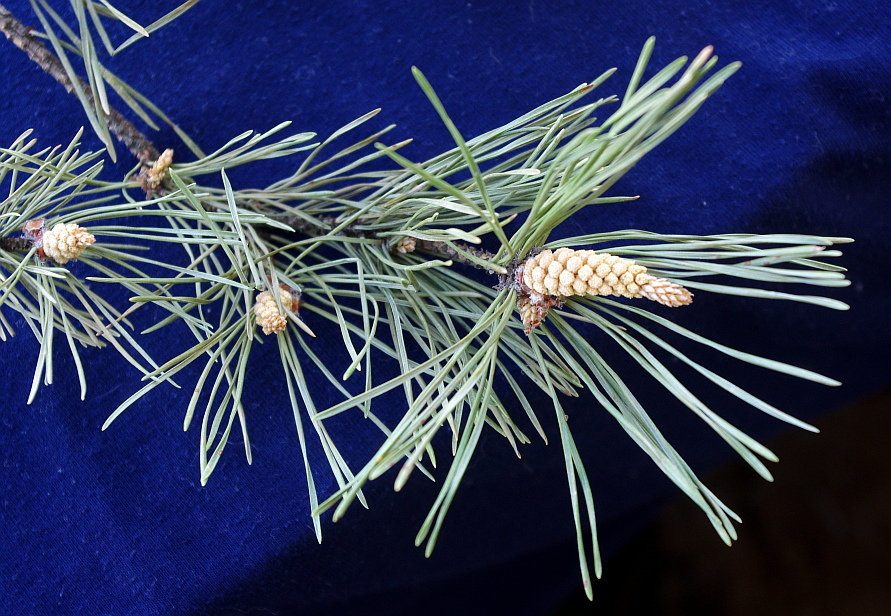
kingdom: Plantae
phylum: Tracheophyta
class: Pinopsida
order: Pinales
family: Pinaceae
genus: Pinus
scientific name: Pinus sylvestris
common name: Scots pine
